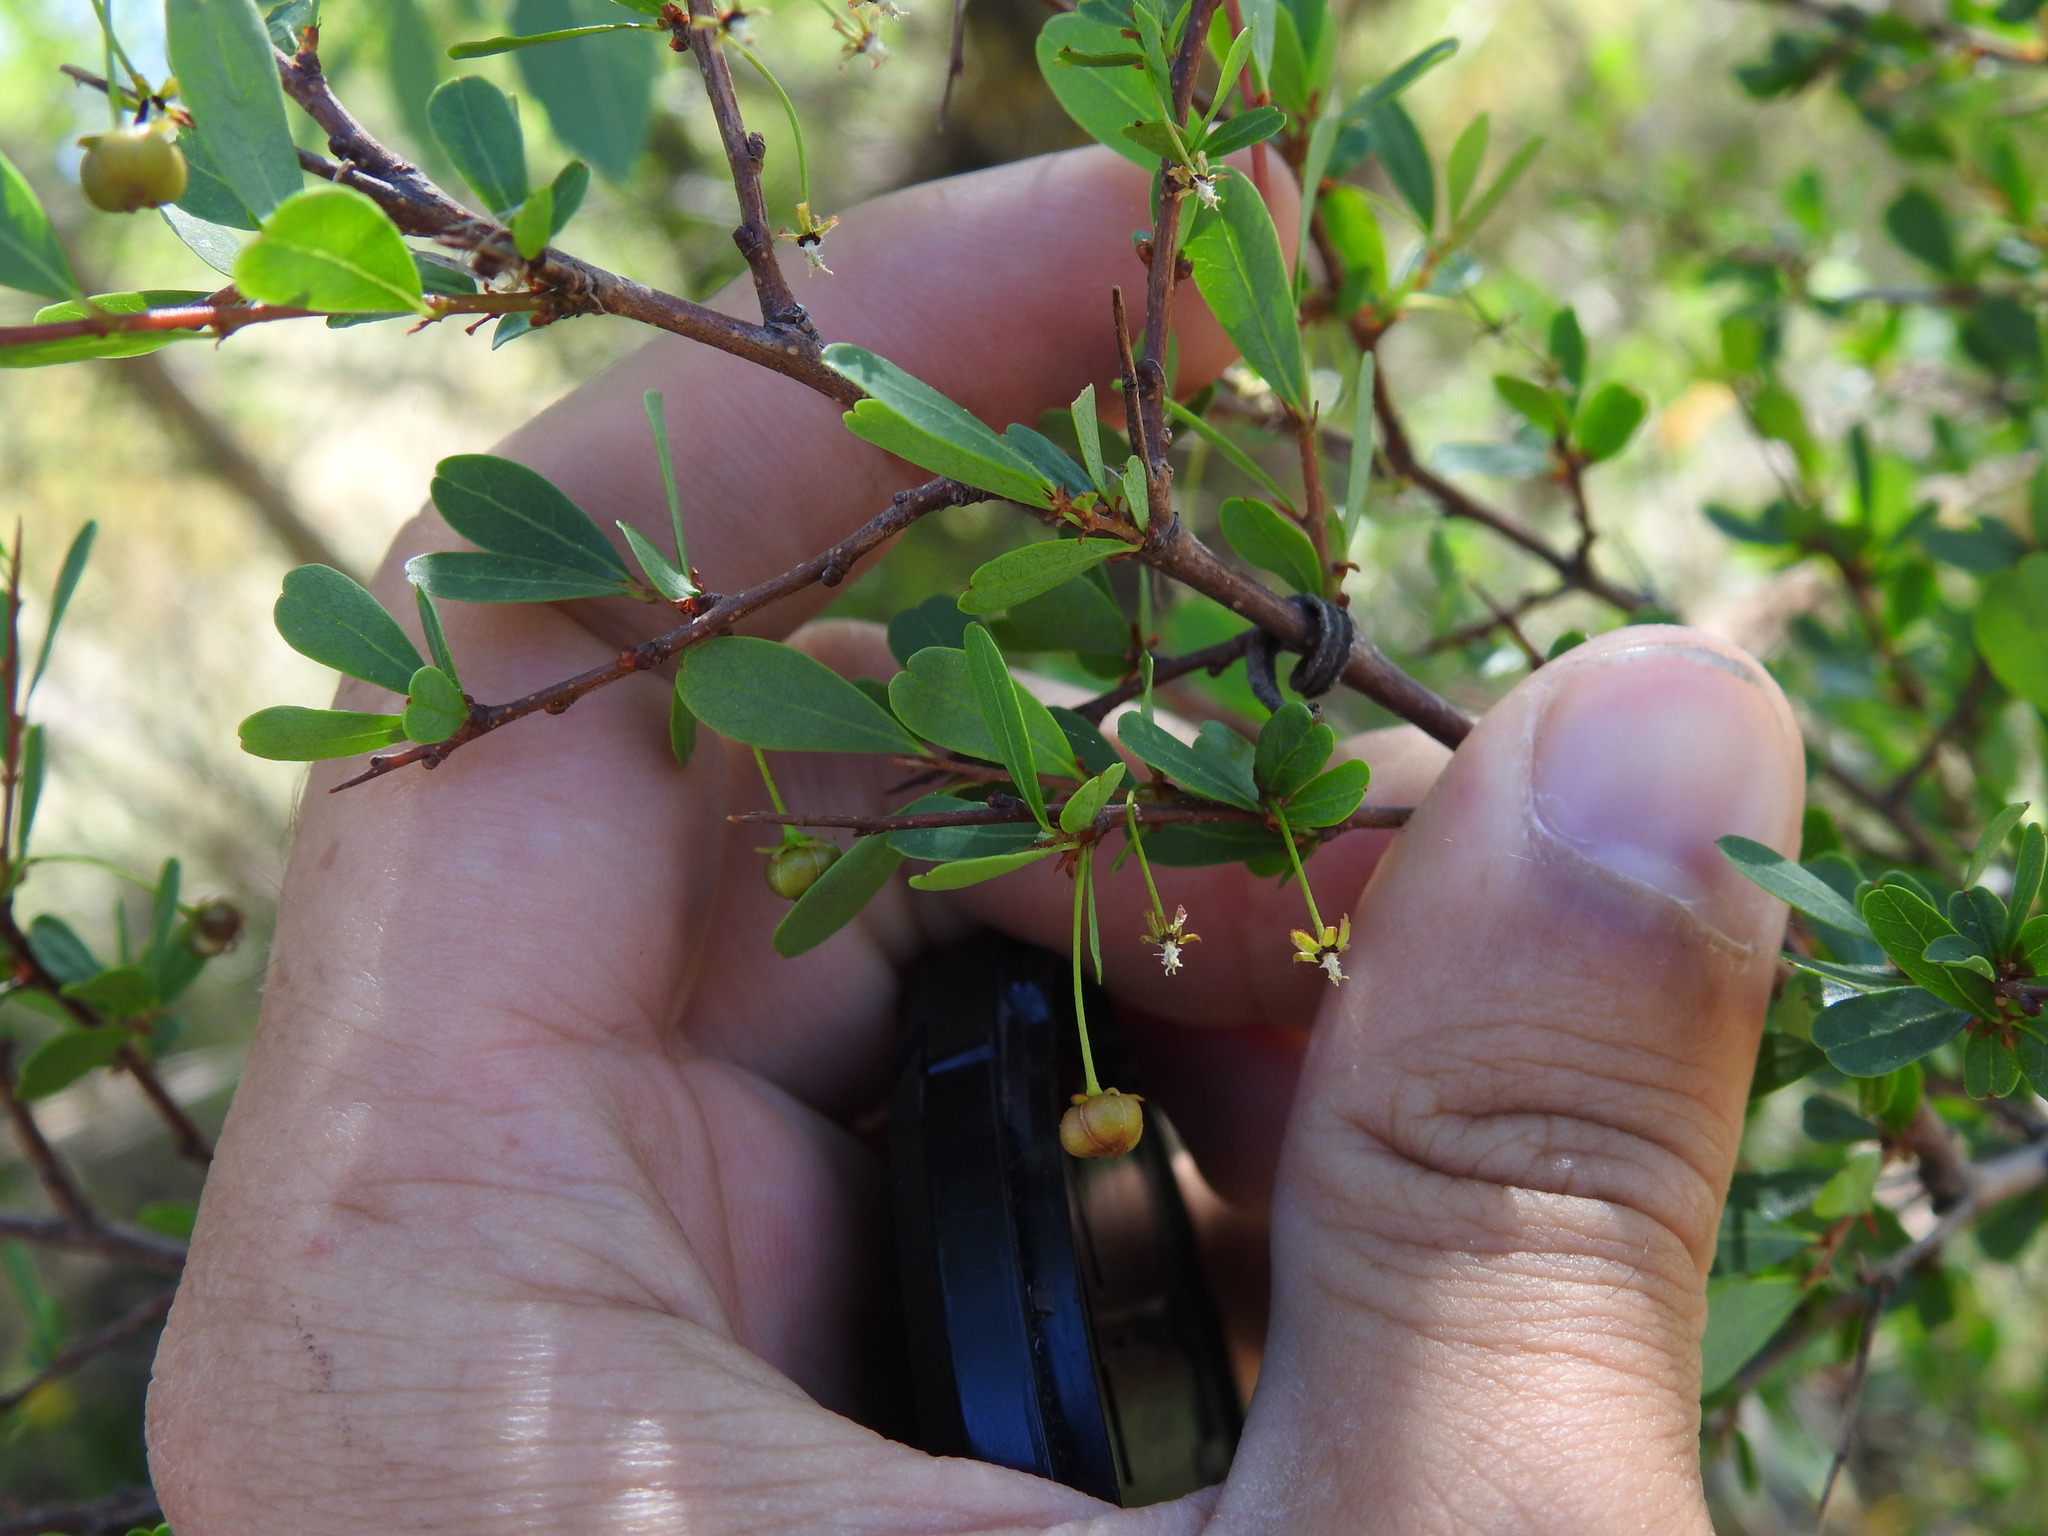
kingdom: Plantae
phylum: Tracheophyta
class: Magnoliopsida
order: Malpighiales
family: Phyllanthaceae
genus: Flueggea
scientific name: Flueggea tinctoria
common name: Tamujo
